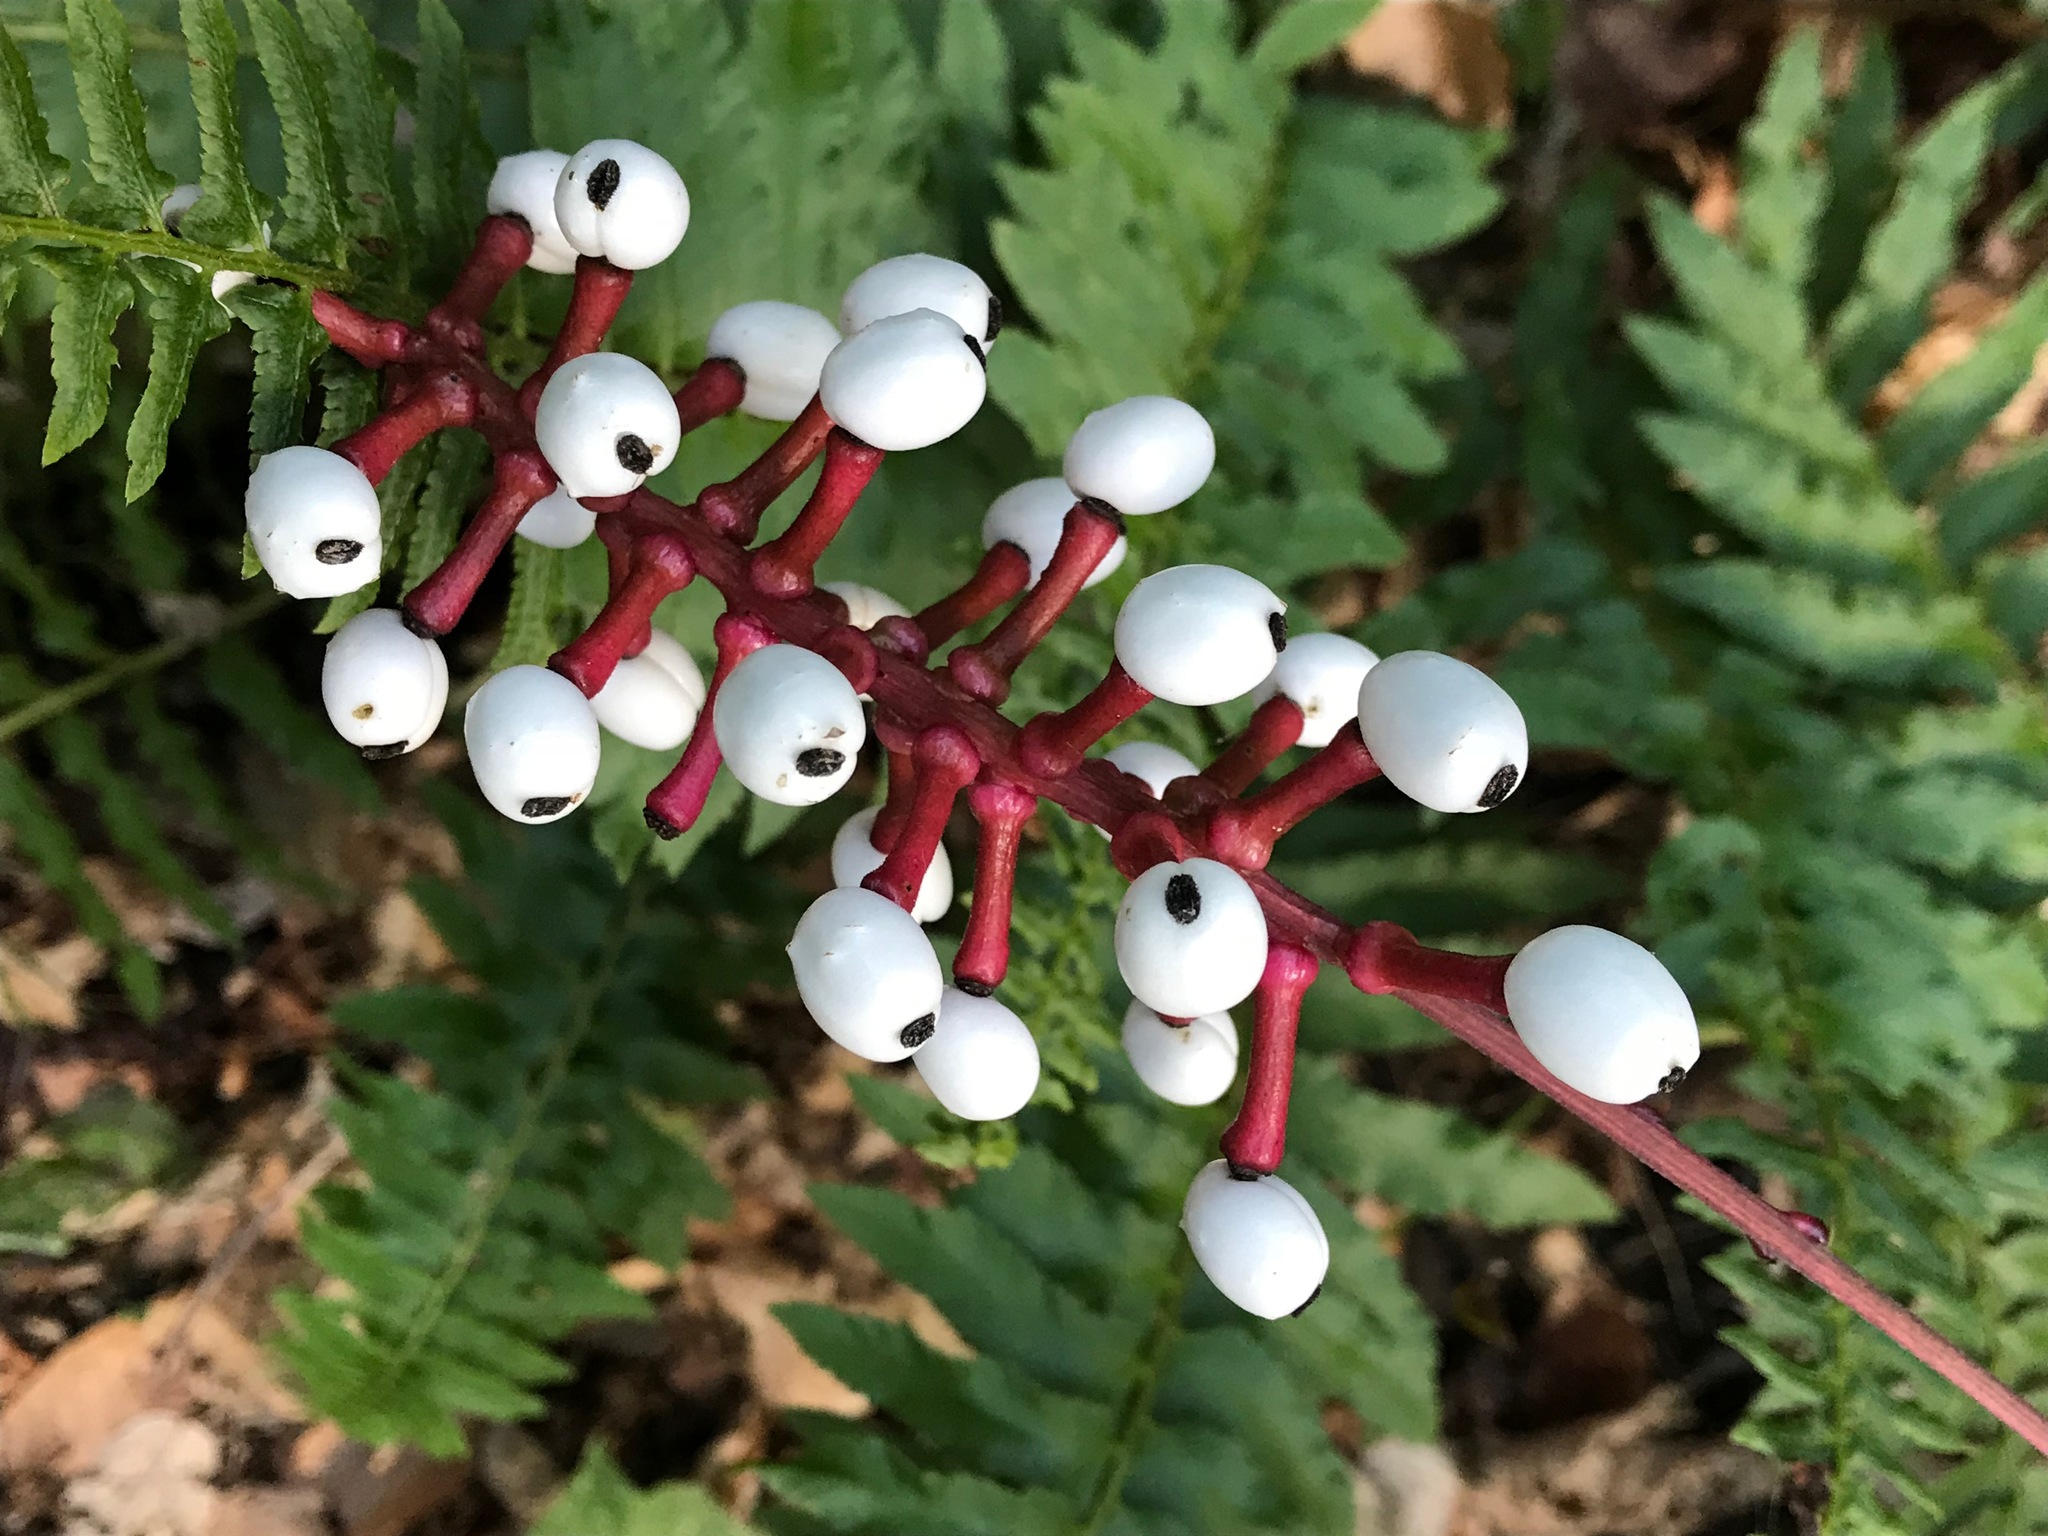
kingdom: Plantae
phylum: Tracheophyta
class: Magnoliopsida
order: Ranunculales
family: Ranunculaceae
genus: Actaea
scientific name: Actaea pachypoda
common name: Doll's-eyes
